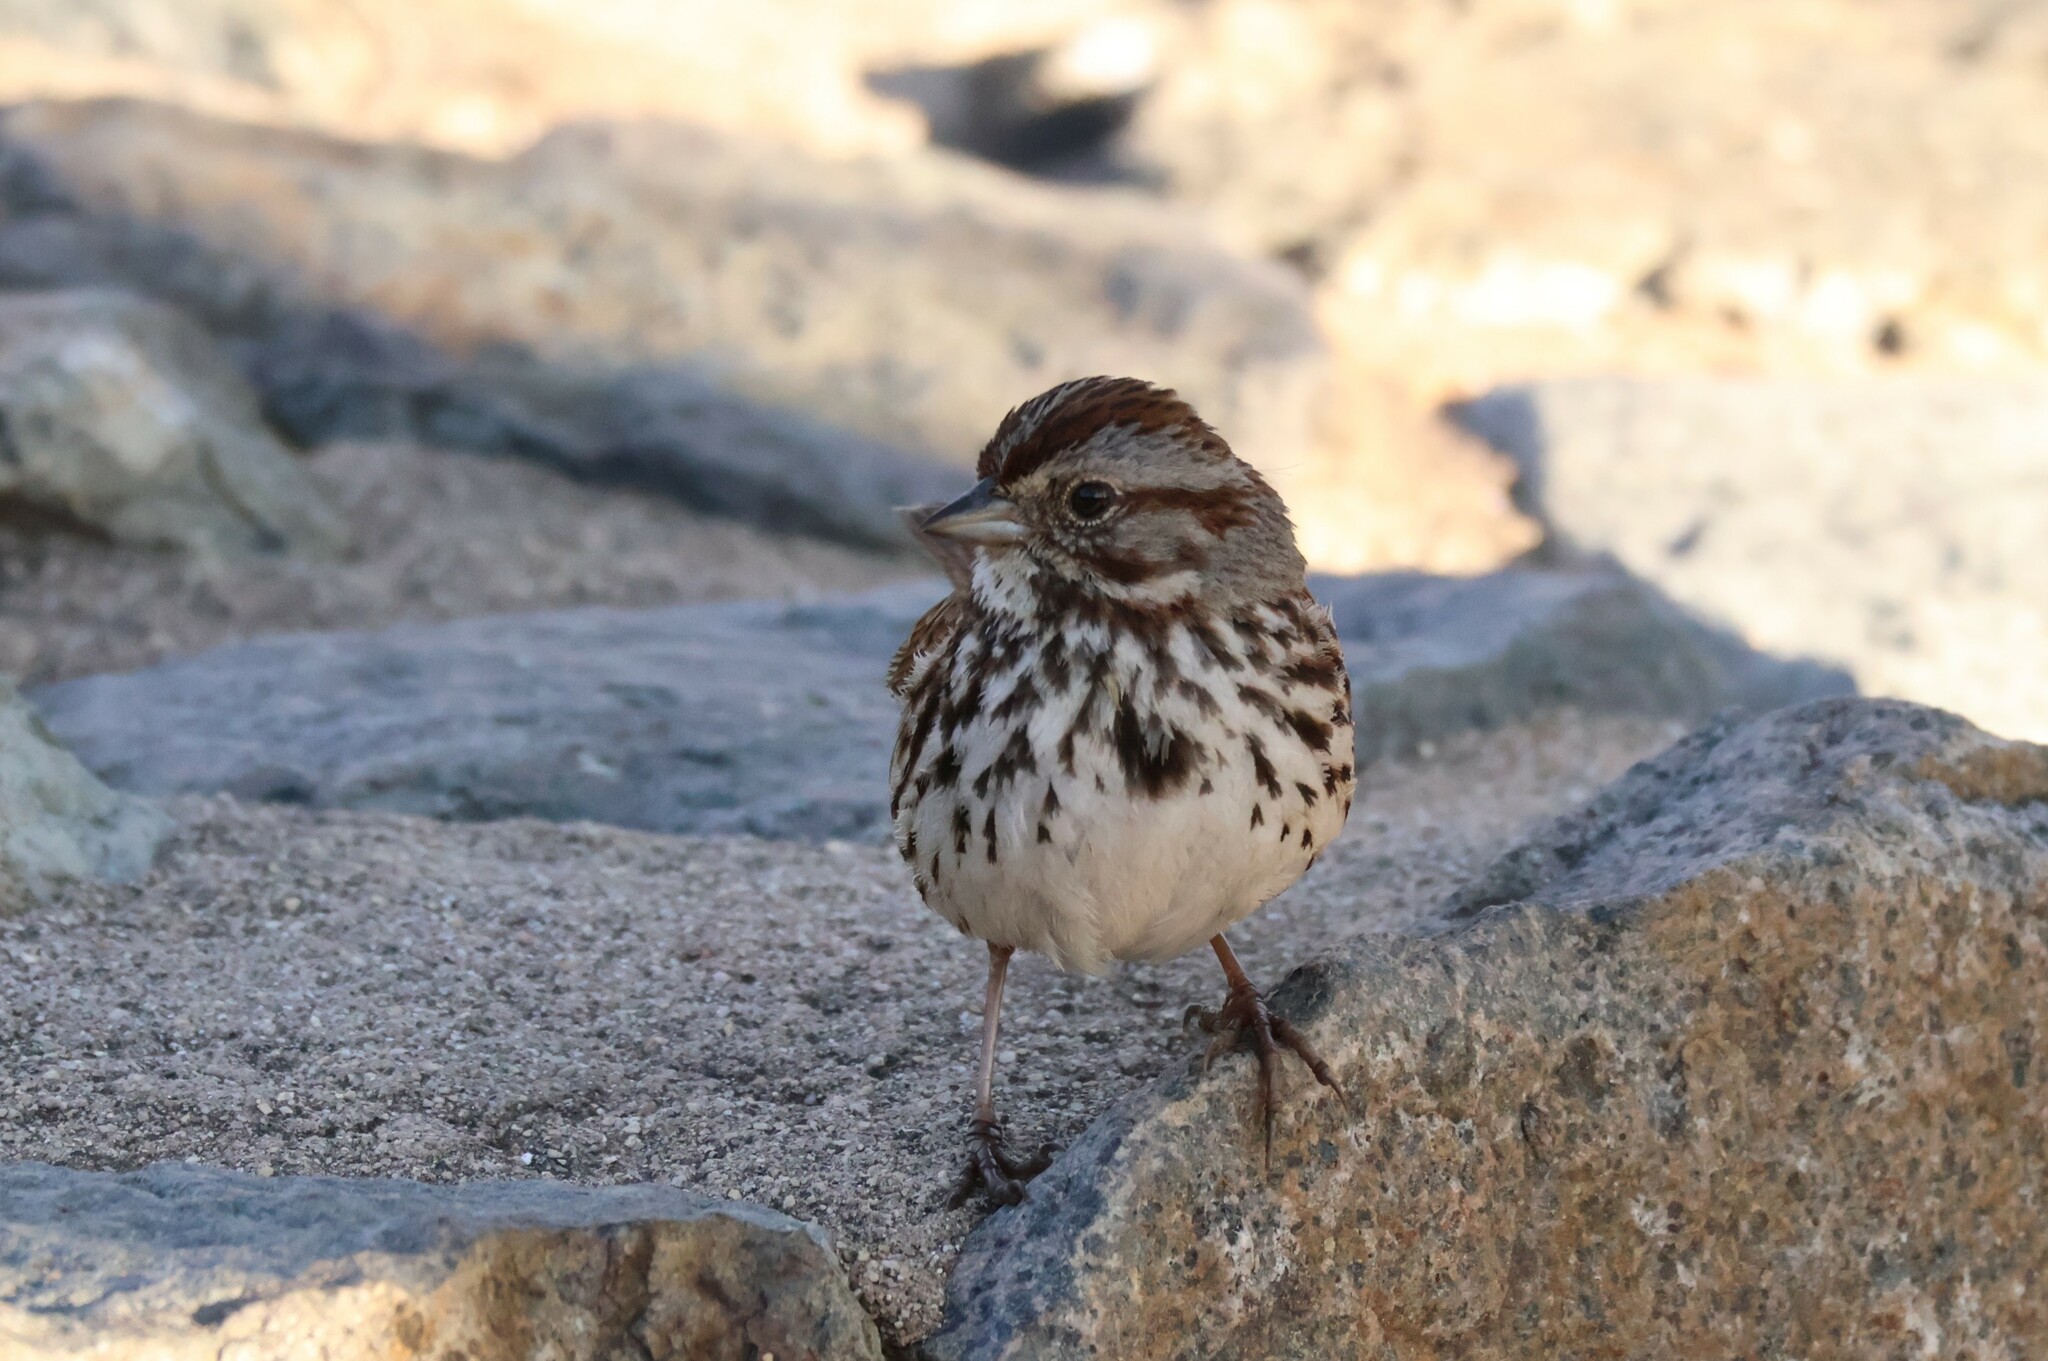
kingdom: Animalia
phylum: Chordata
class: Aves
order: Passeriformes
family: Passerellidae
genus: Melospiza
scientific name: Melospiza melodia
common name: Song sparrow
